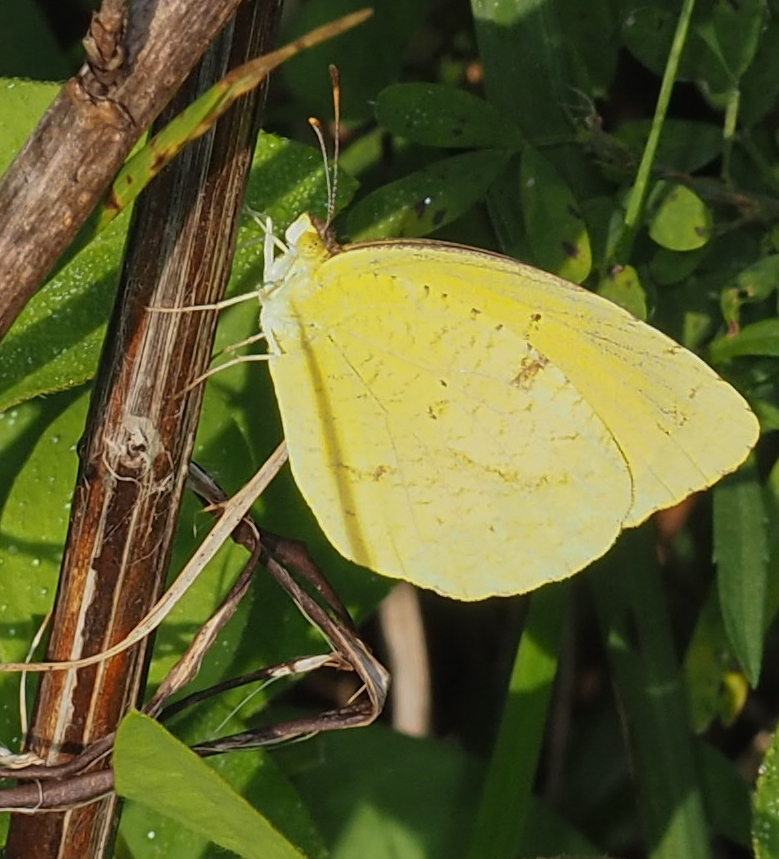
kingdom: Animalia
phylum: Arthropoda
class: Insecta
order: Lepidoptera
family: Pieridae
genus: Abaeis
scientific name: Abaeis nicippe
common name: Sleepy orange
